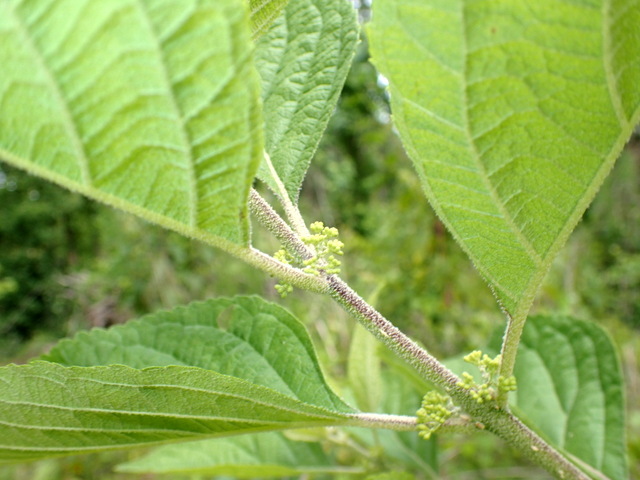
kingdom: Plantae
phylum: Tracheophyta
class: Magnoliopsida
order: Lamiales
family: Lamiaceae
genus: Callicarpa
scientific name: Callicarpa americana
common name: American beautyberry
